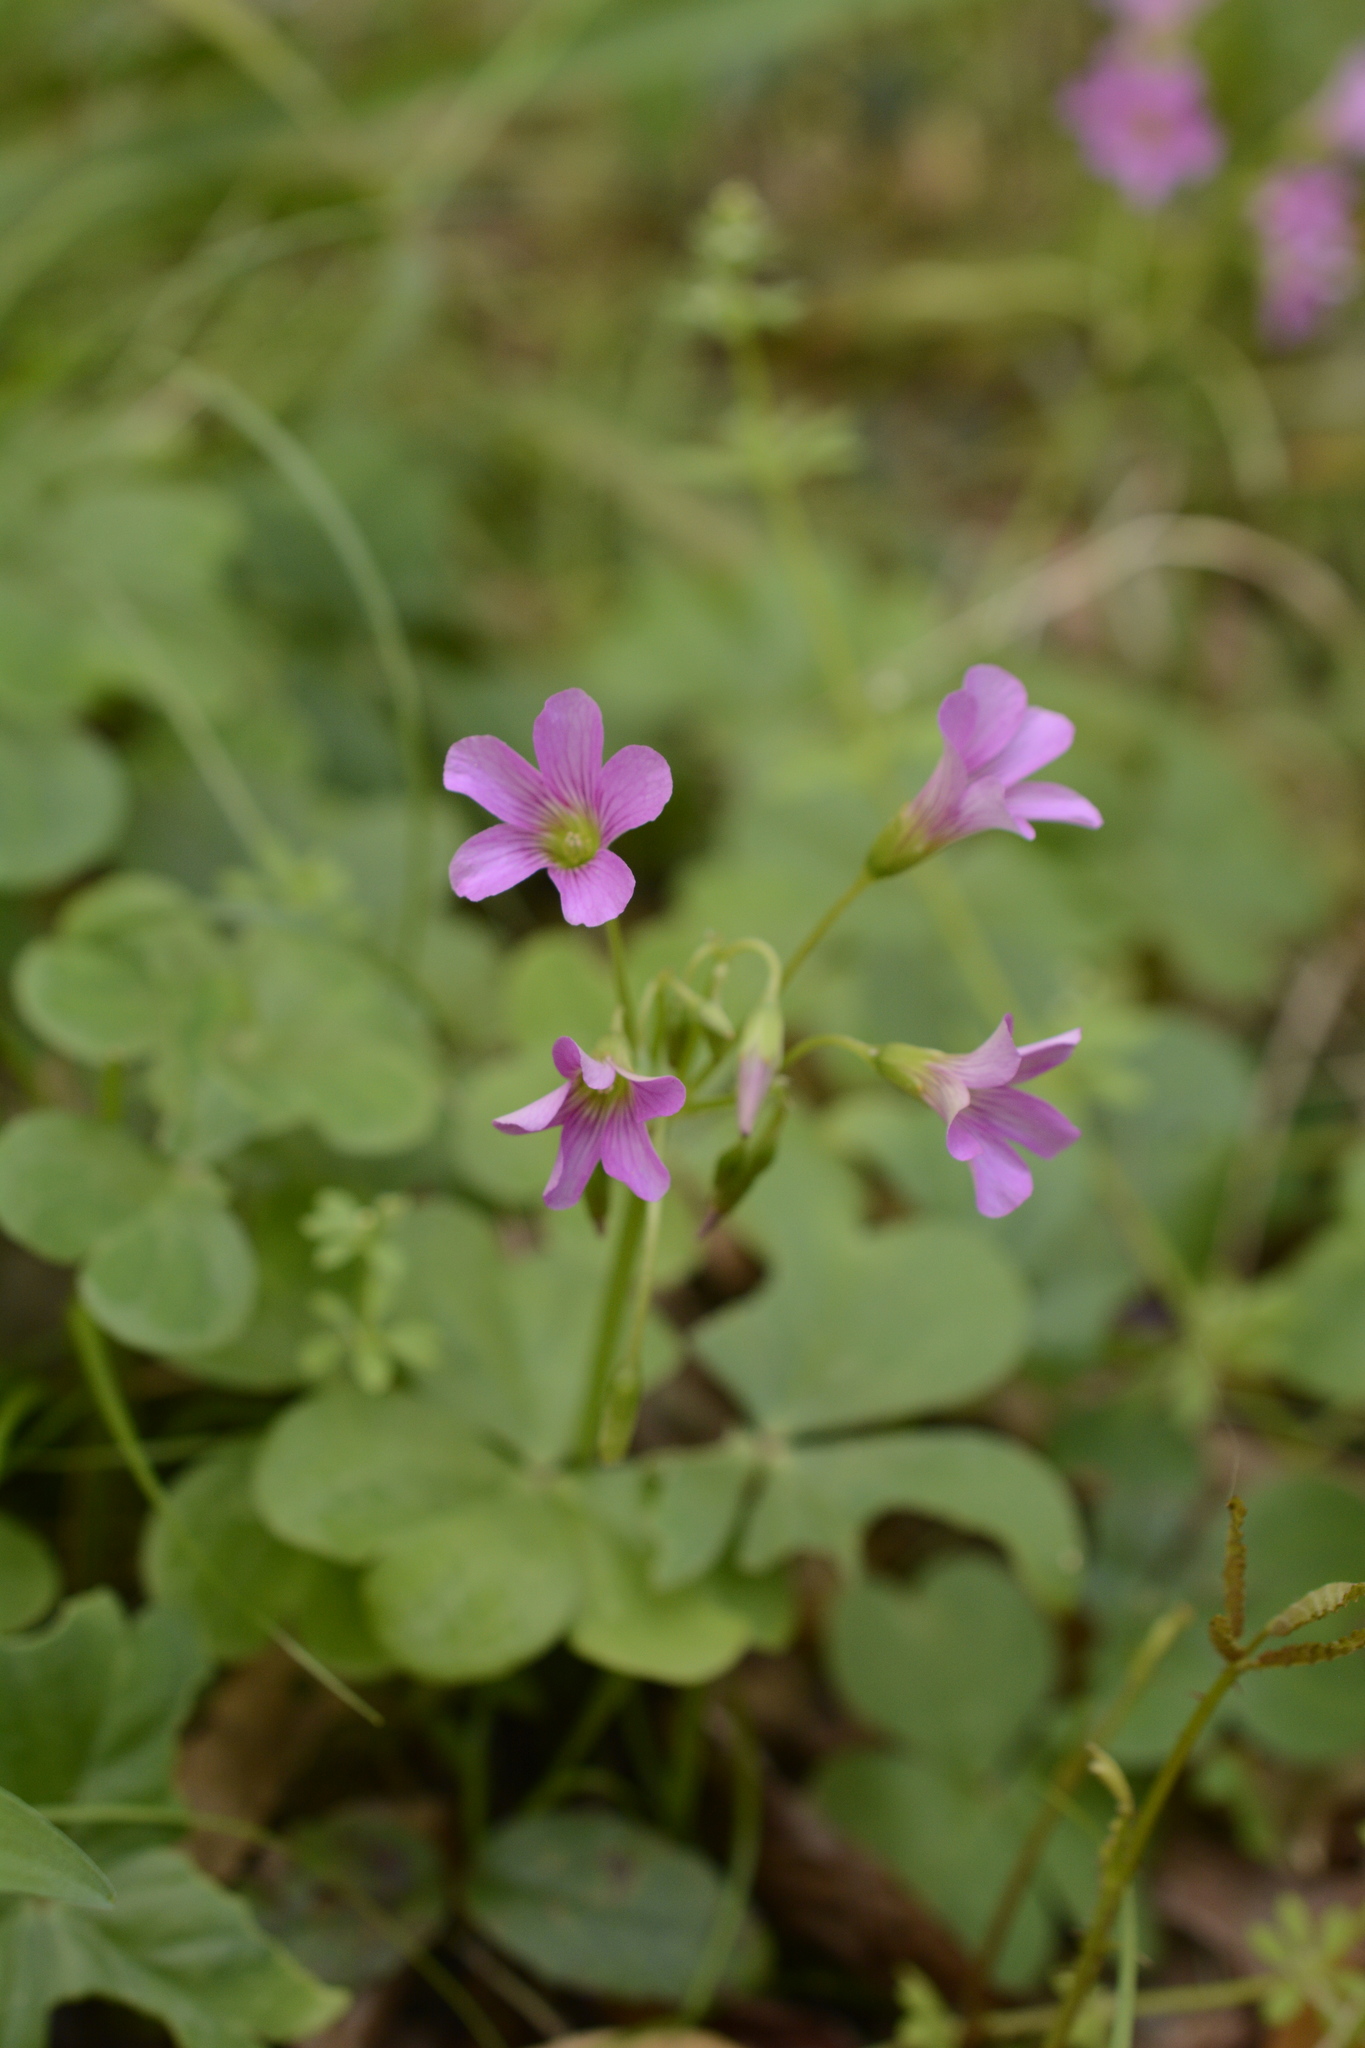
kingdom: Plantae
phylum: Tracheophyta
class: Magnoliopsida
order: Oxalidales
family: Oxalidaceae
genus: Oxalis
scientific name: Oxalis debilis
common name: Large-flowered pink-sorrel
